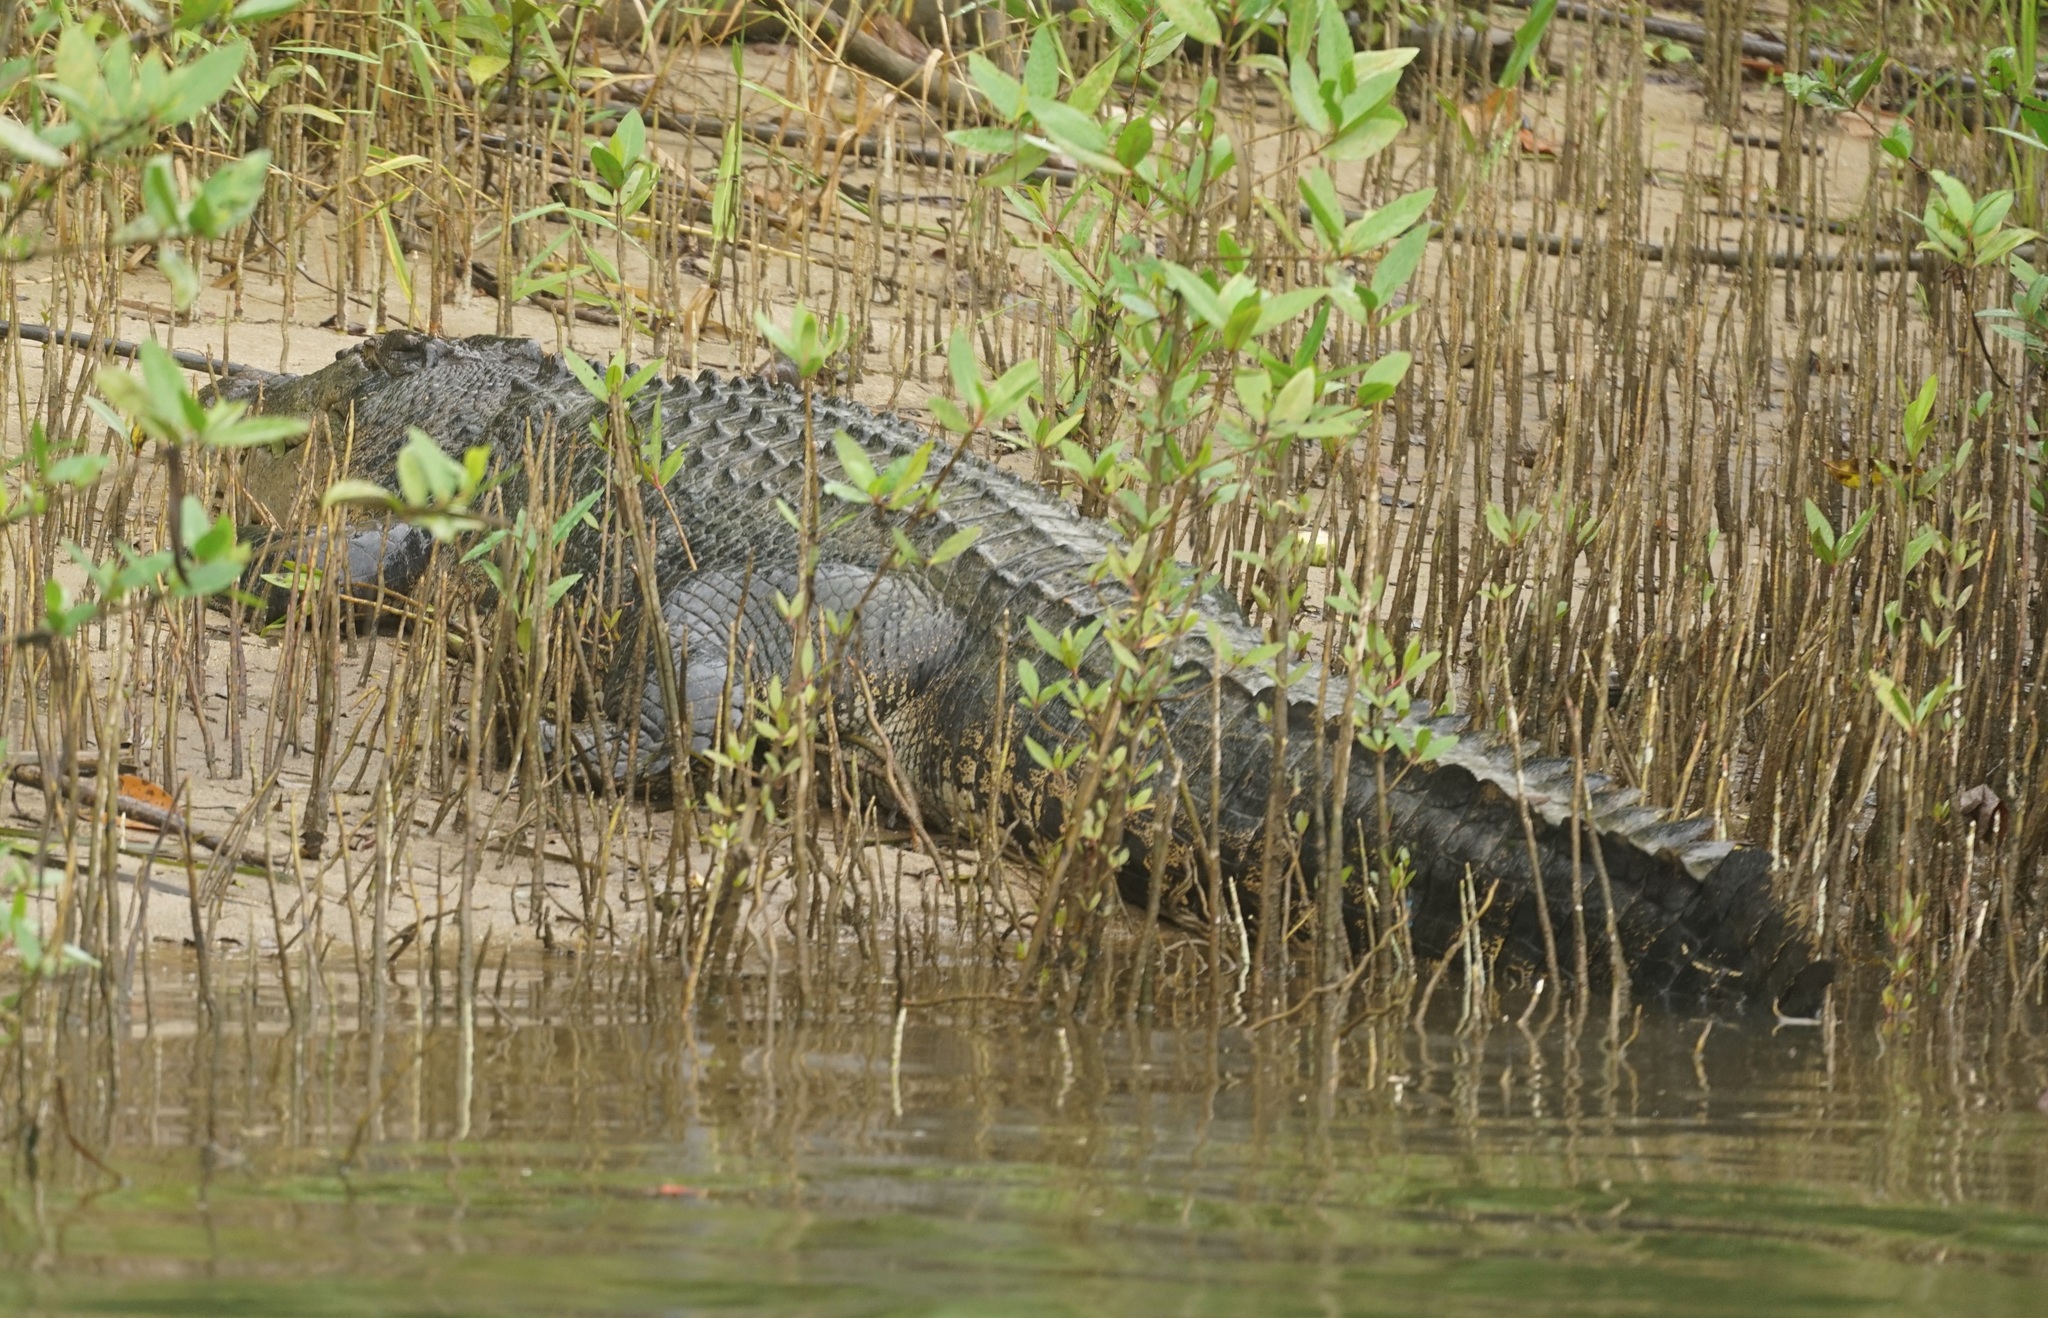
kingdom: Animalia
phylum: Chordata
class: Crocodylia
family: Crocodylidae
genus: Crocodylus
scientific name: Crocodylus porosus
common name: Saltwater crocodile
